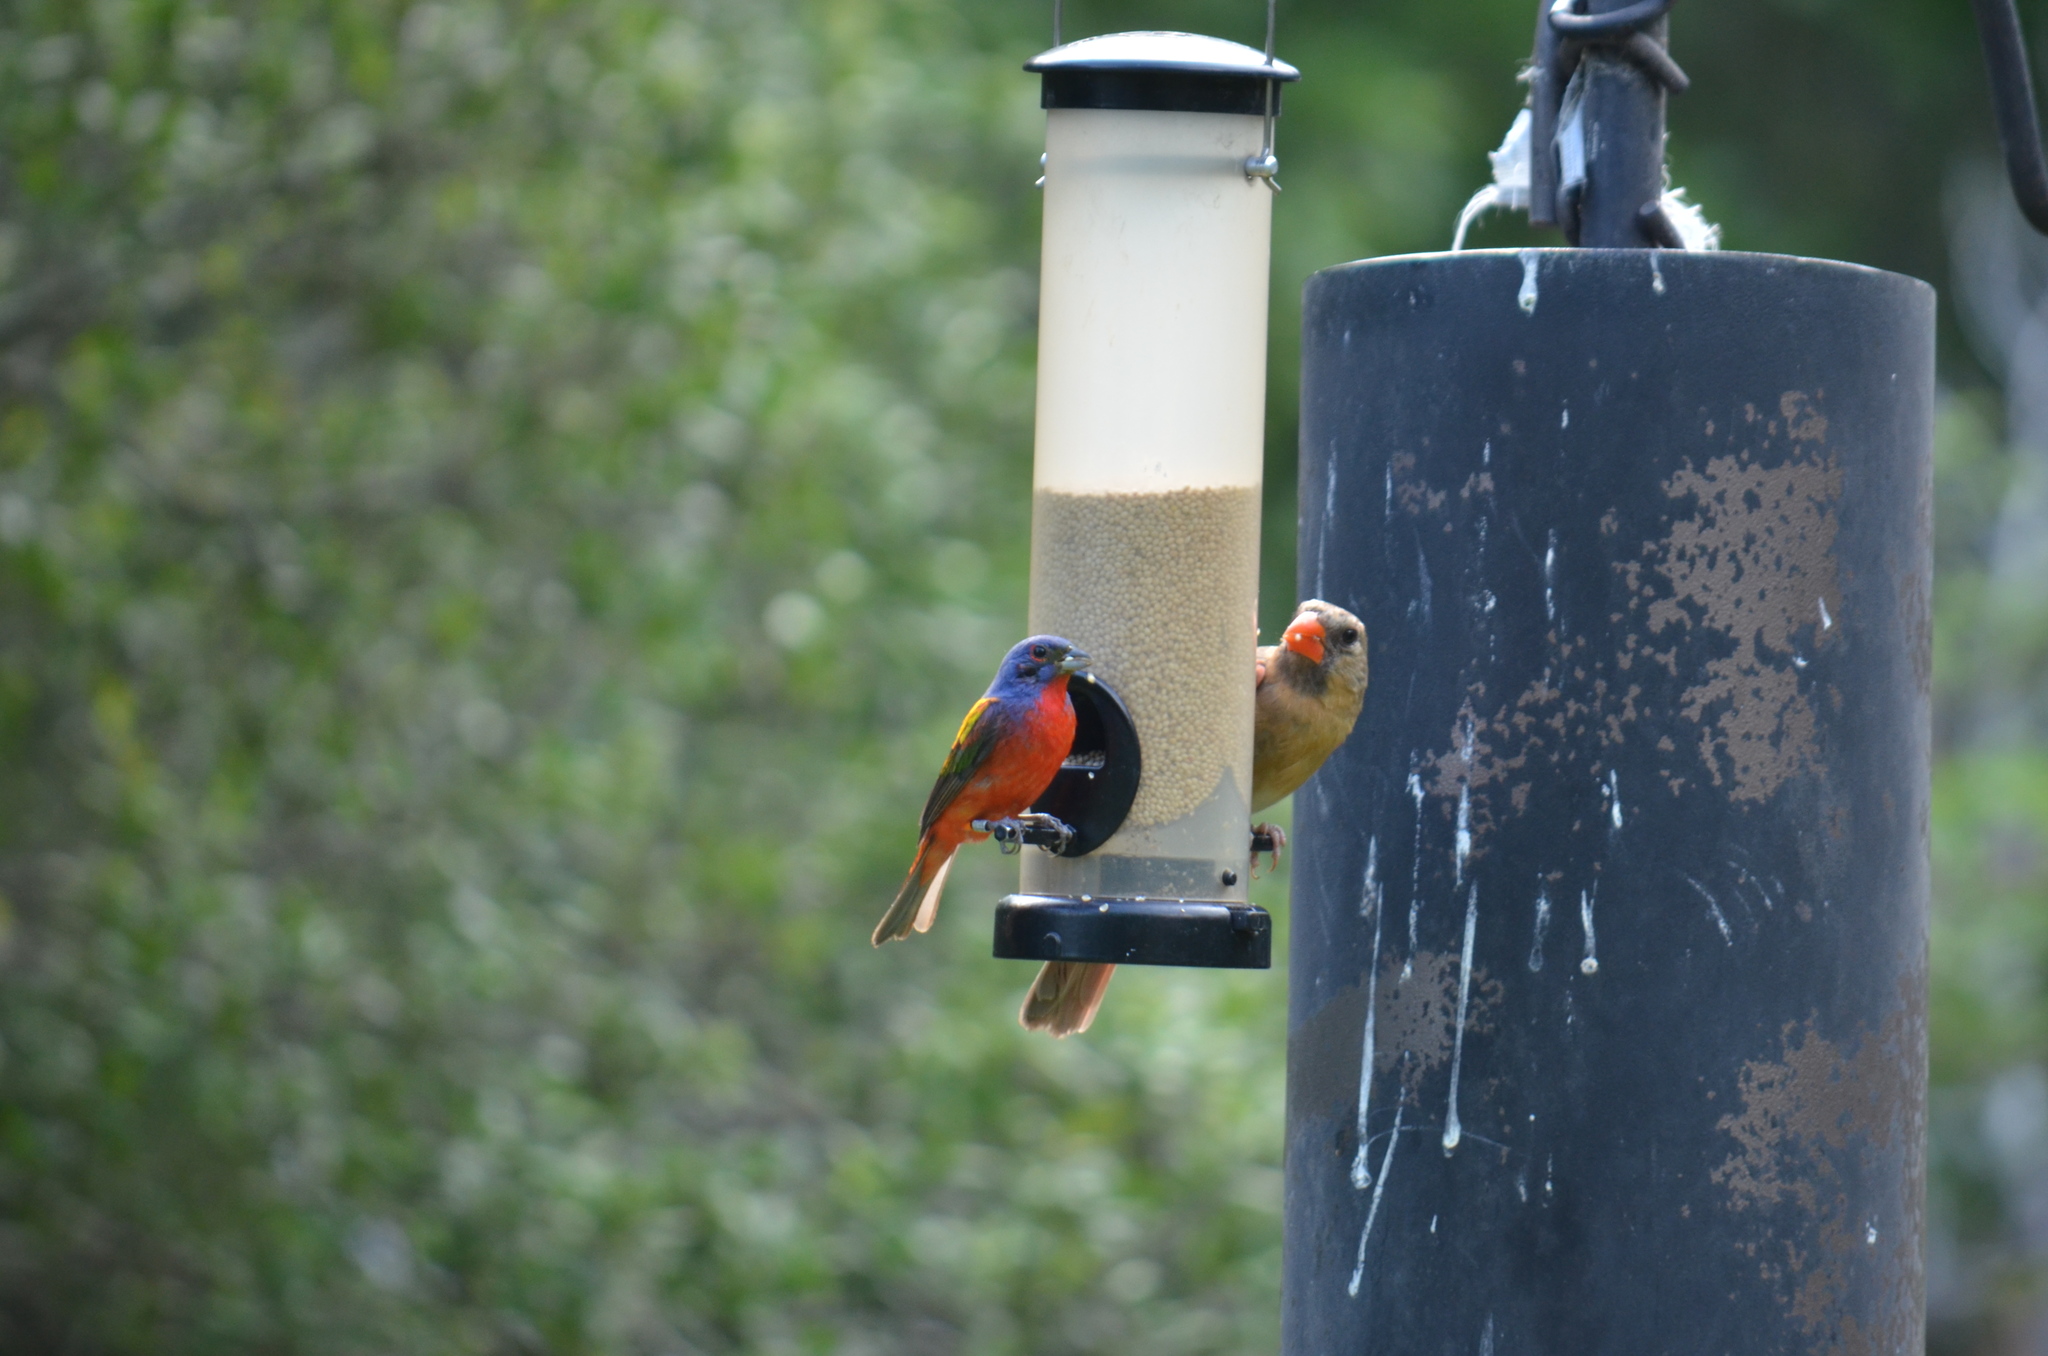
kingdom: Animalia
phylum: Chordata
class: Aves
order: Passeriformes
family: Cardinalidae
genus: Passerina
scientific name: Passerina ciris
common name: Painted bunting
